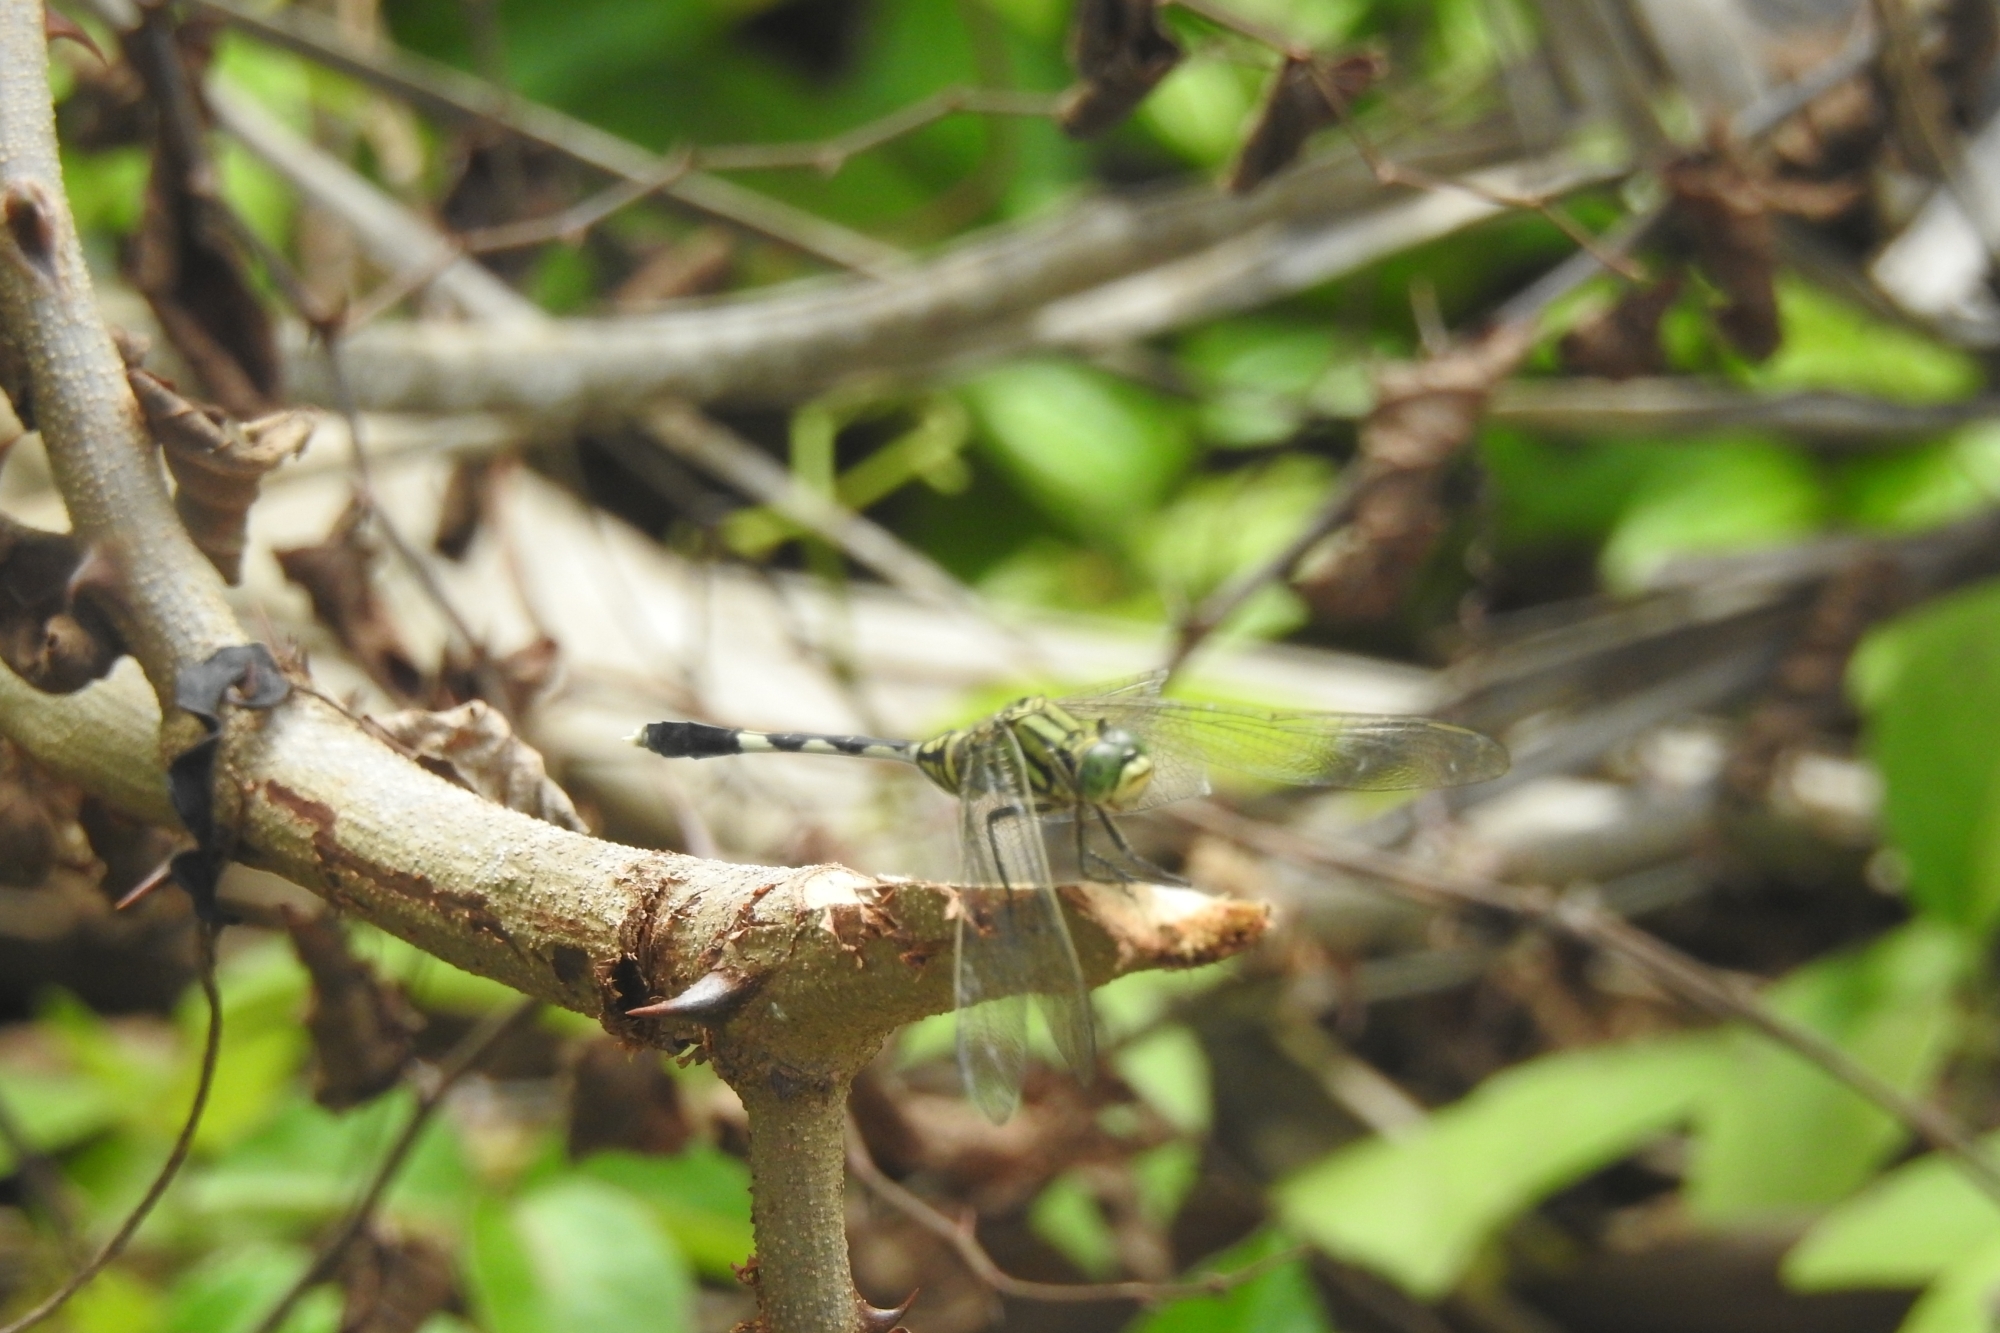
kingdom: Animalia
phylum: Arthropoda
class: Insecta
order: Odonata
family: Libellulidae
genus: Orthetrum
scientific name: Orthetrum sabina
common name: Slender skimmer
